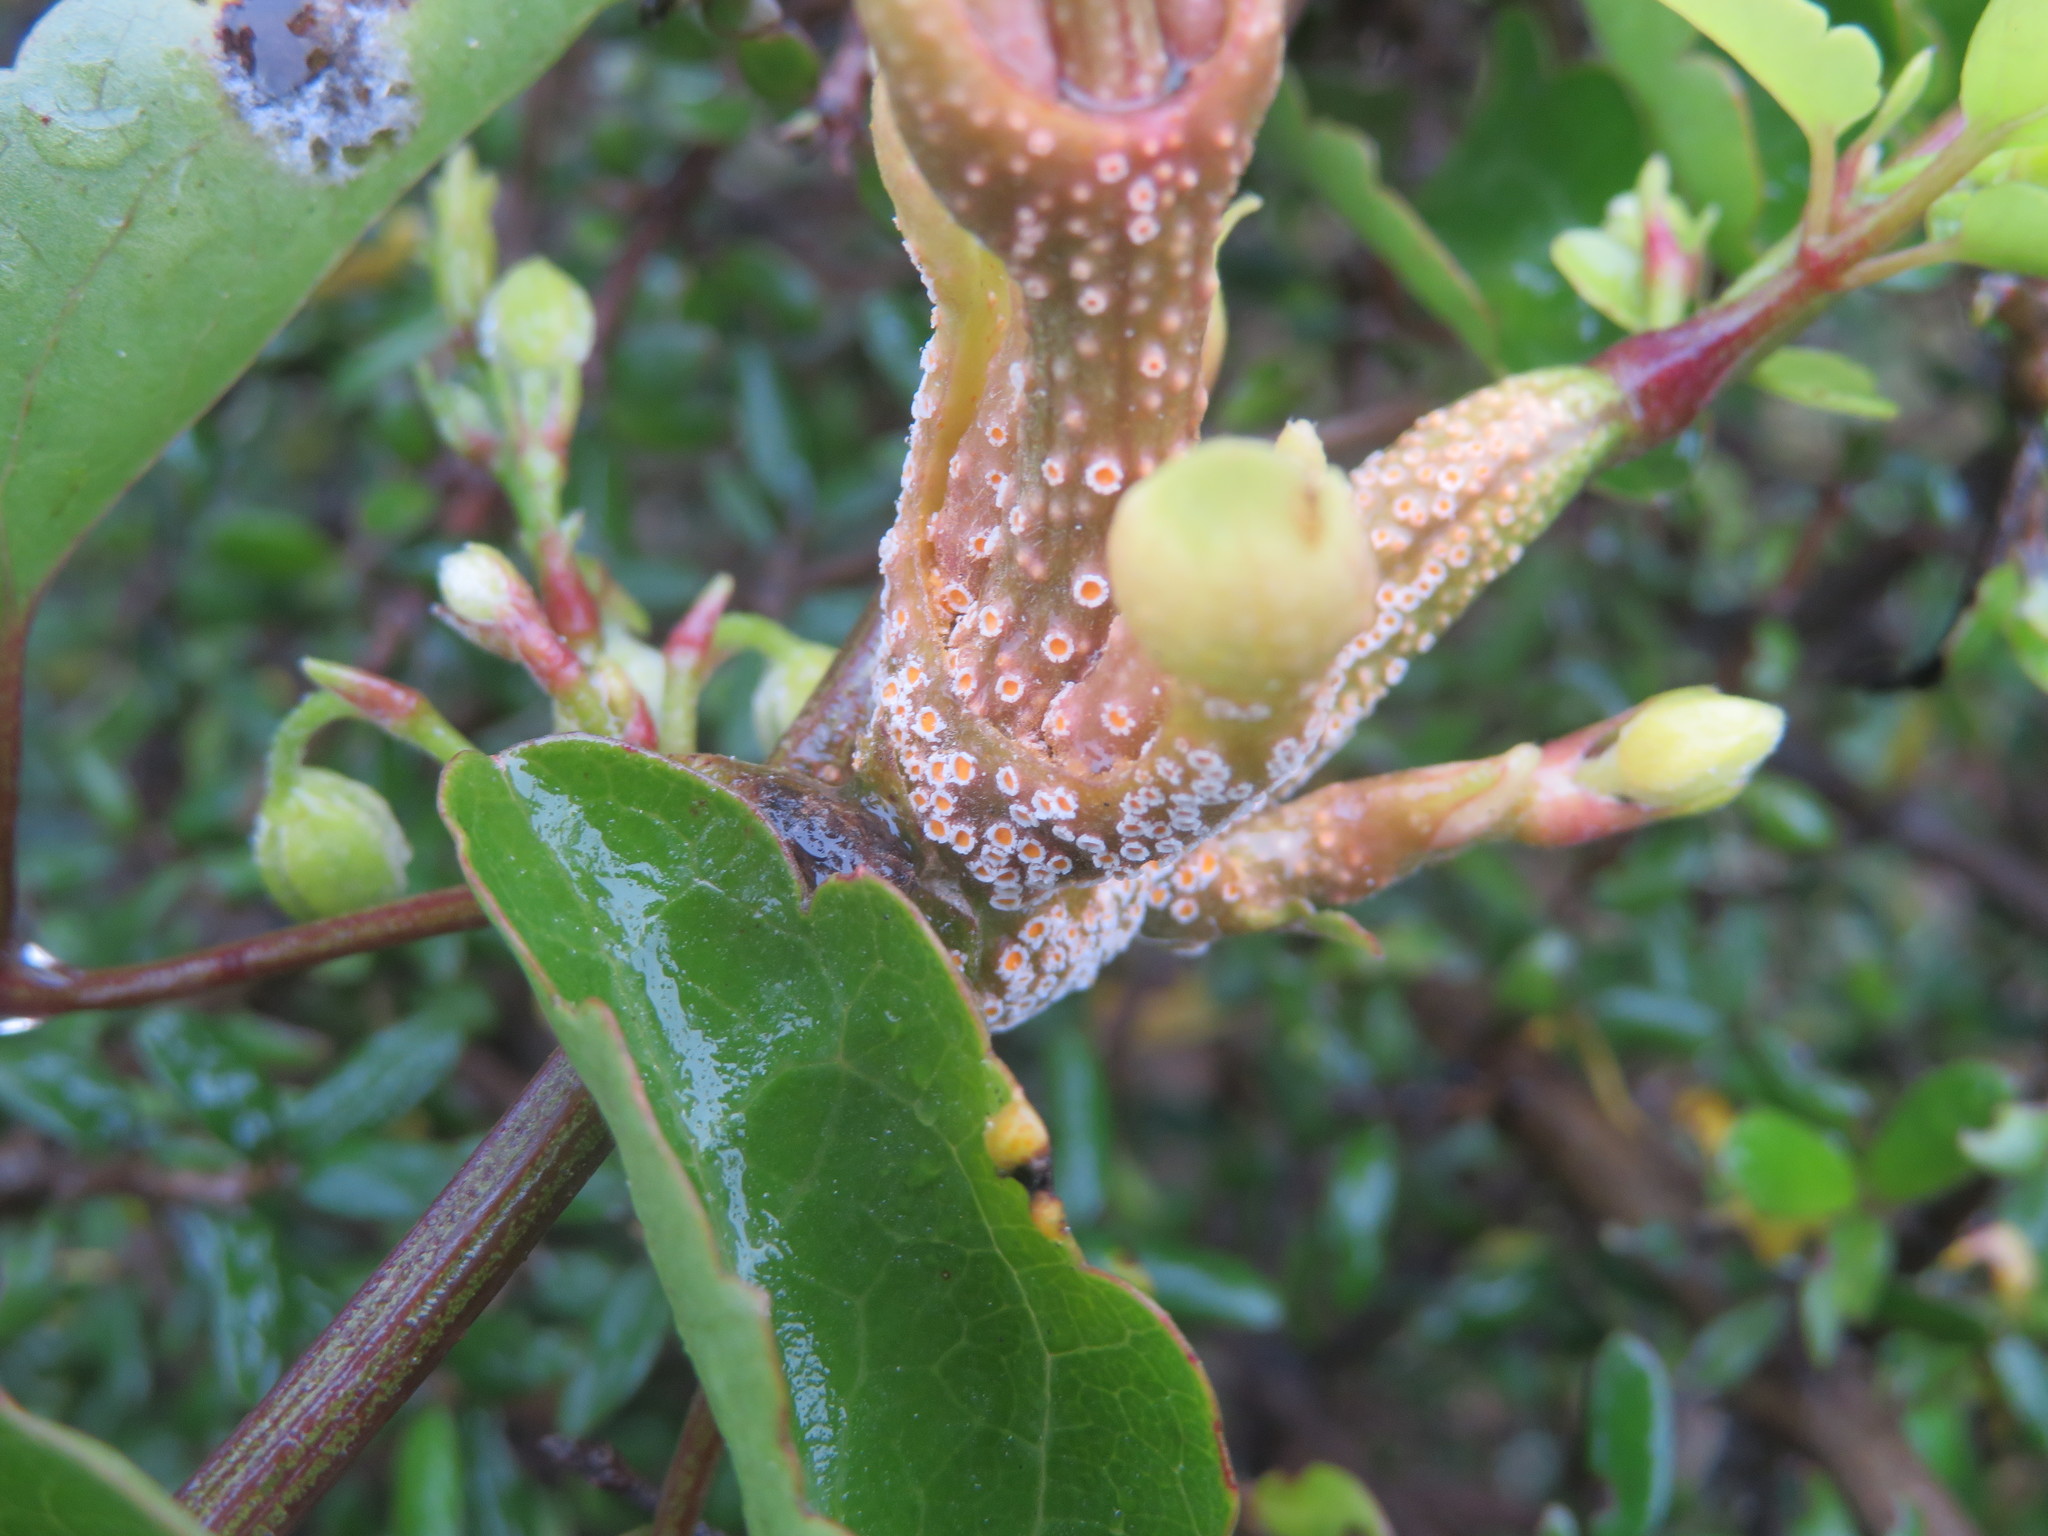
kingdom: Fungi
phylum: Basidiomycota
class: Pucciniomycetes
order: Pucciniales
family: Pucciniaceae
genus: Puccinia
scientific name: Puccinia otagensis
